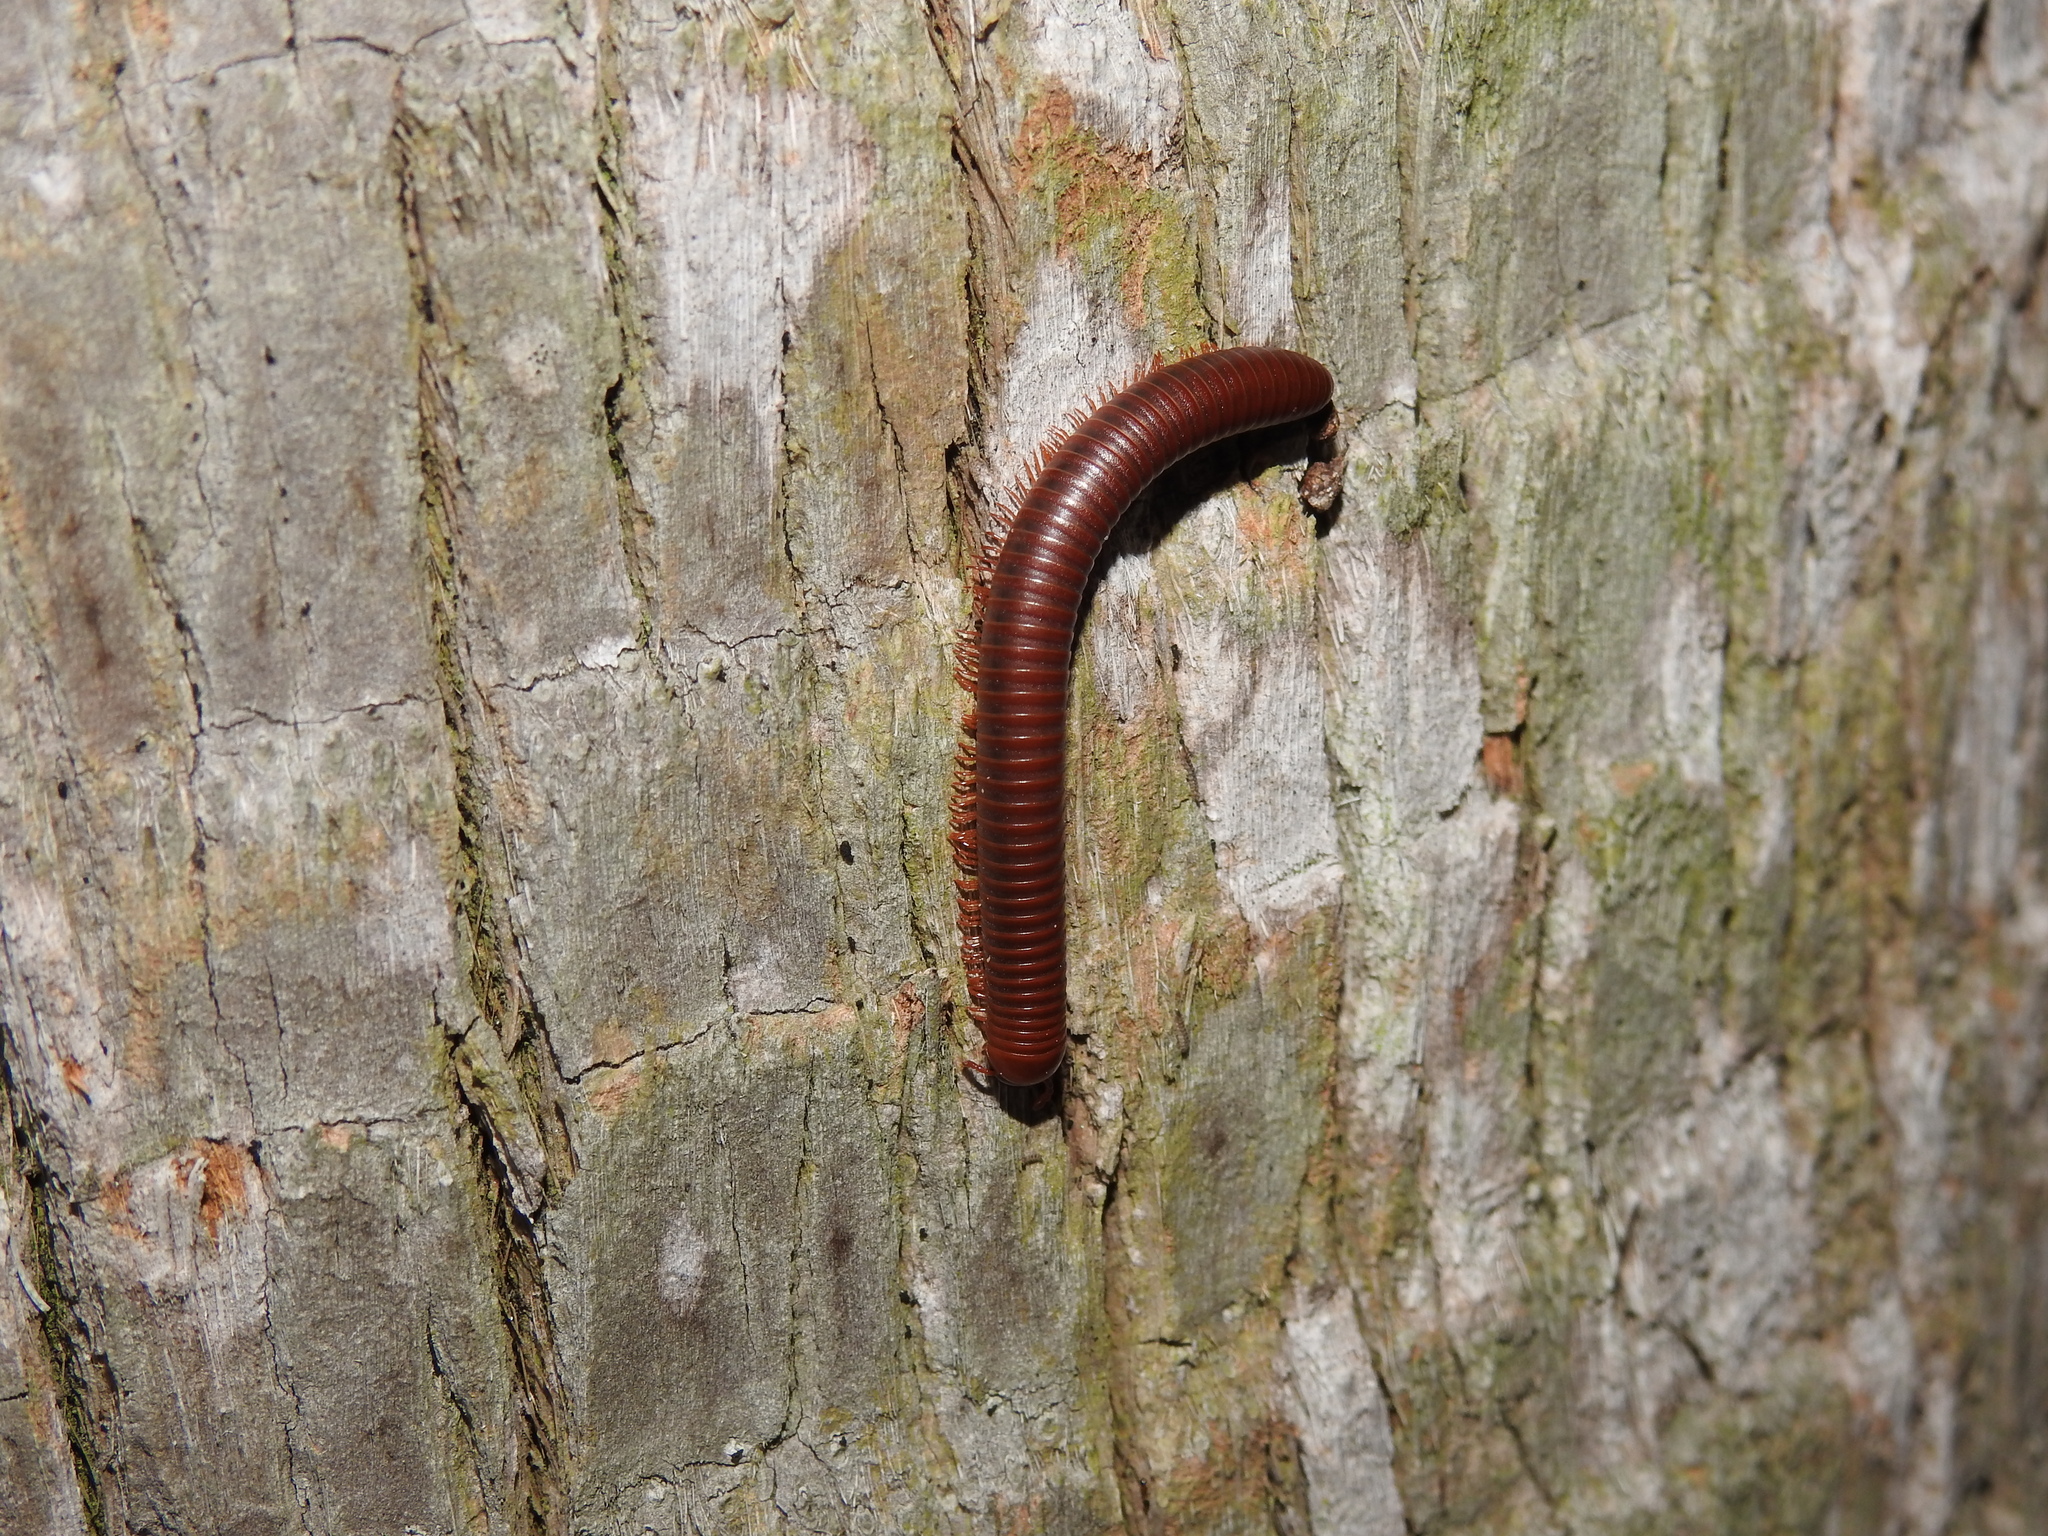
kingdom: Animalia
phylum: Arthropoda
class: Diplopoda
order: Spirobolida
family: Pachybolidae
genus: Trigoniulus
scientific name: Trigoniulus corallinus
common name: Millipede
